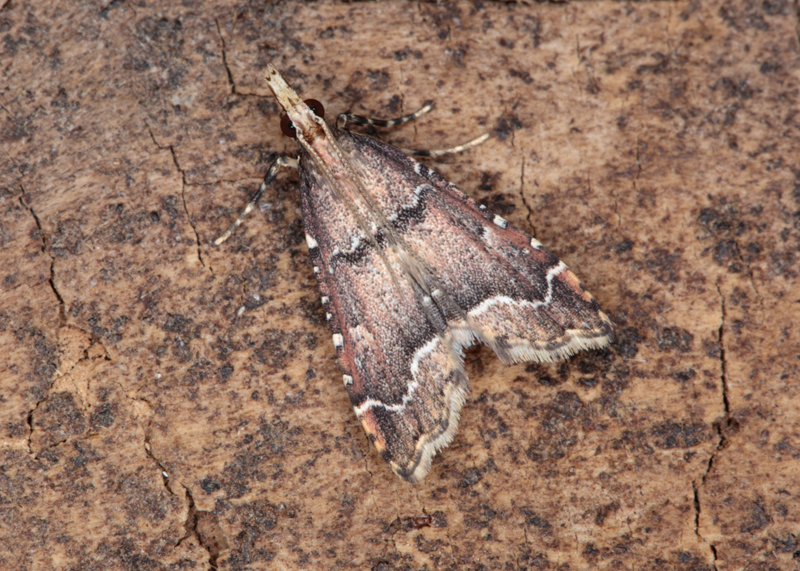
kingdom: Animalia
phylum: Arthropoda
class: Insecta
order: Lepidoptera
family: Crambidae
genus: Diplopseustis
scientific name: Diplopseustis perieresalis
